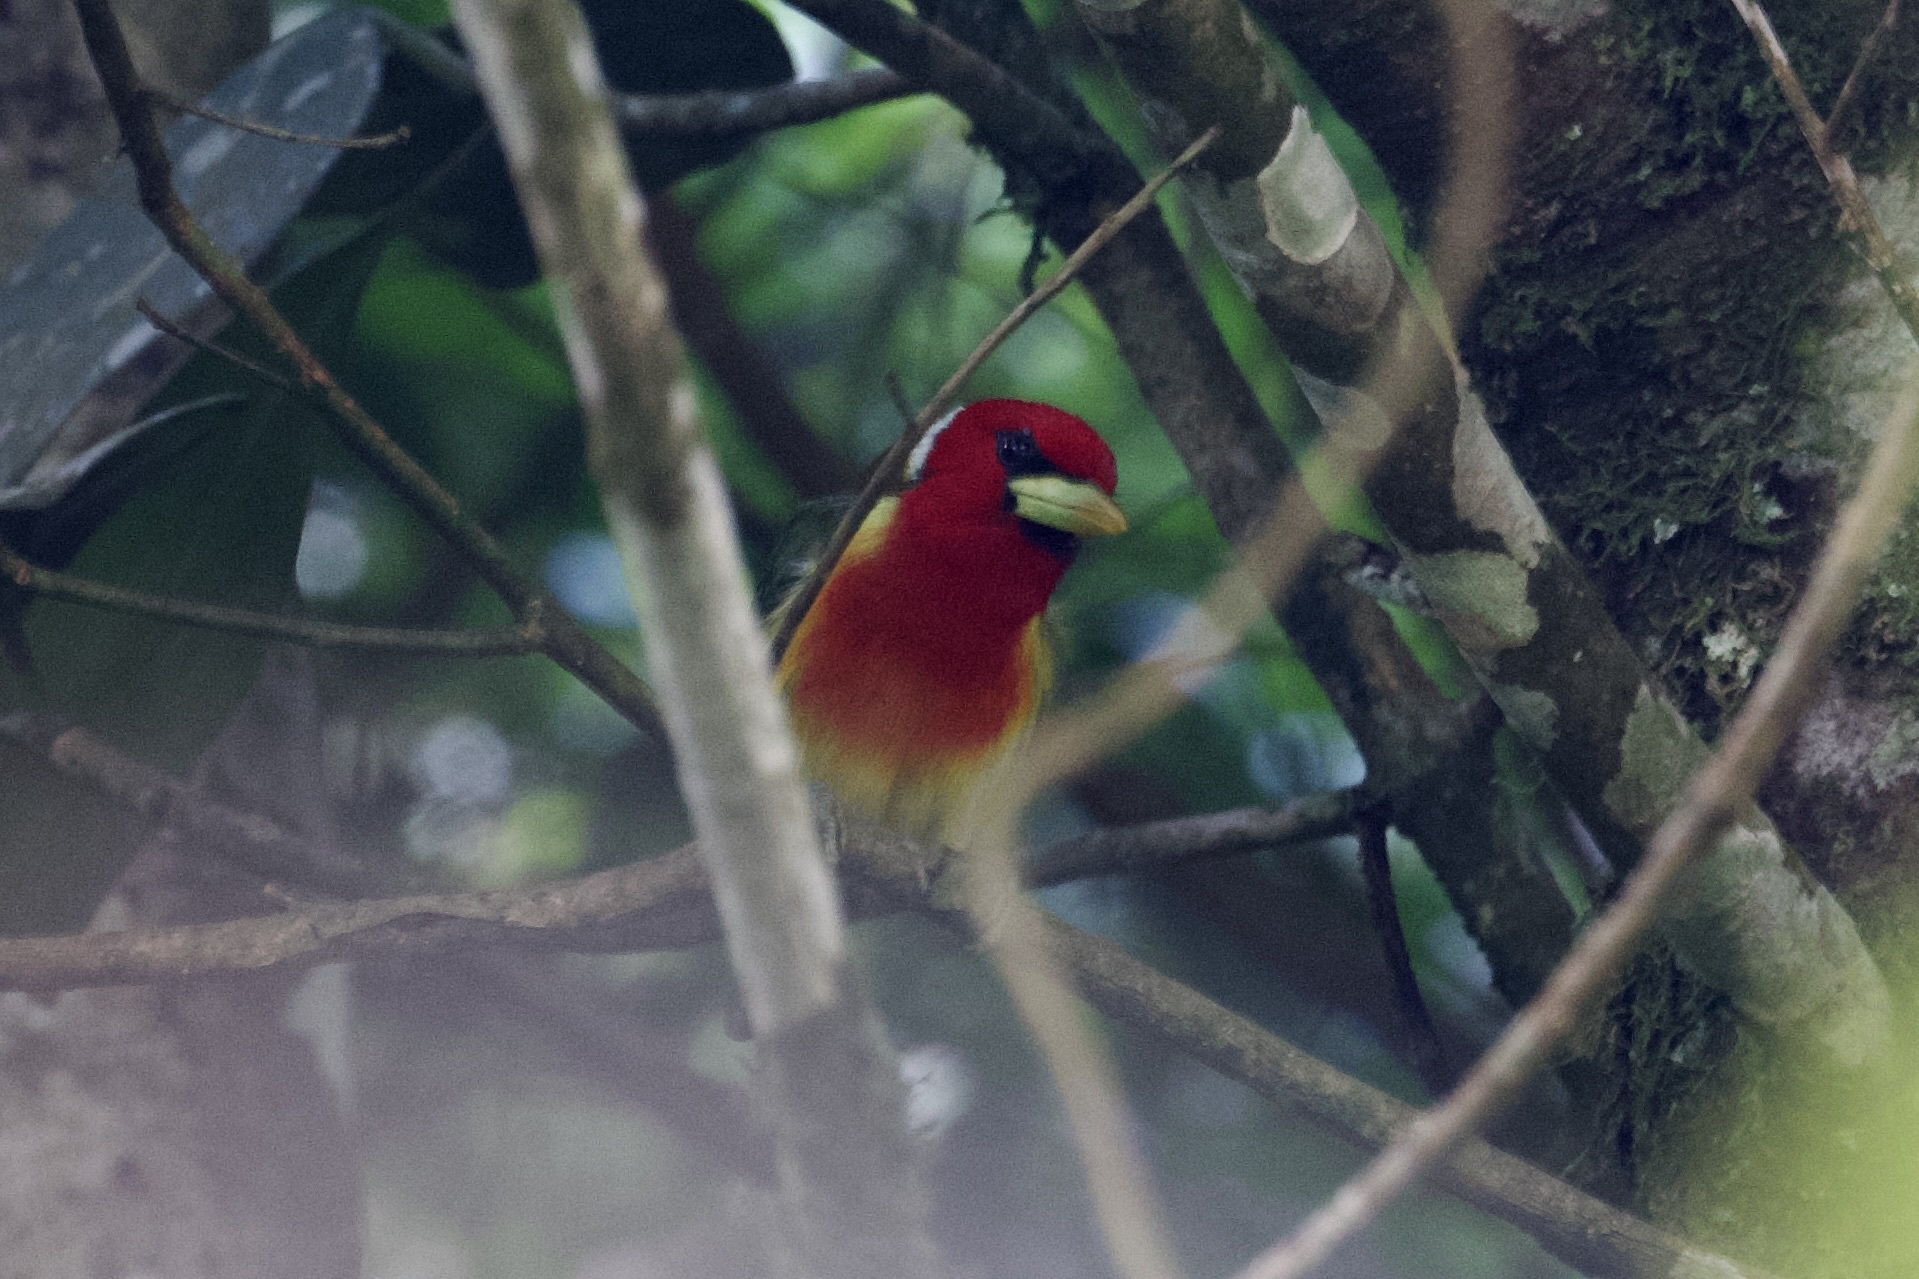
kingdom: Animalia
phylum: Chordata
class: Aves
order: Piciformes
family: Capitonidae
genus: Eubucco
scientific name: Eubucco bourcierii
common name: Red-headed barbet
